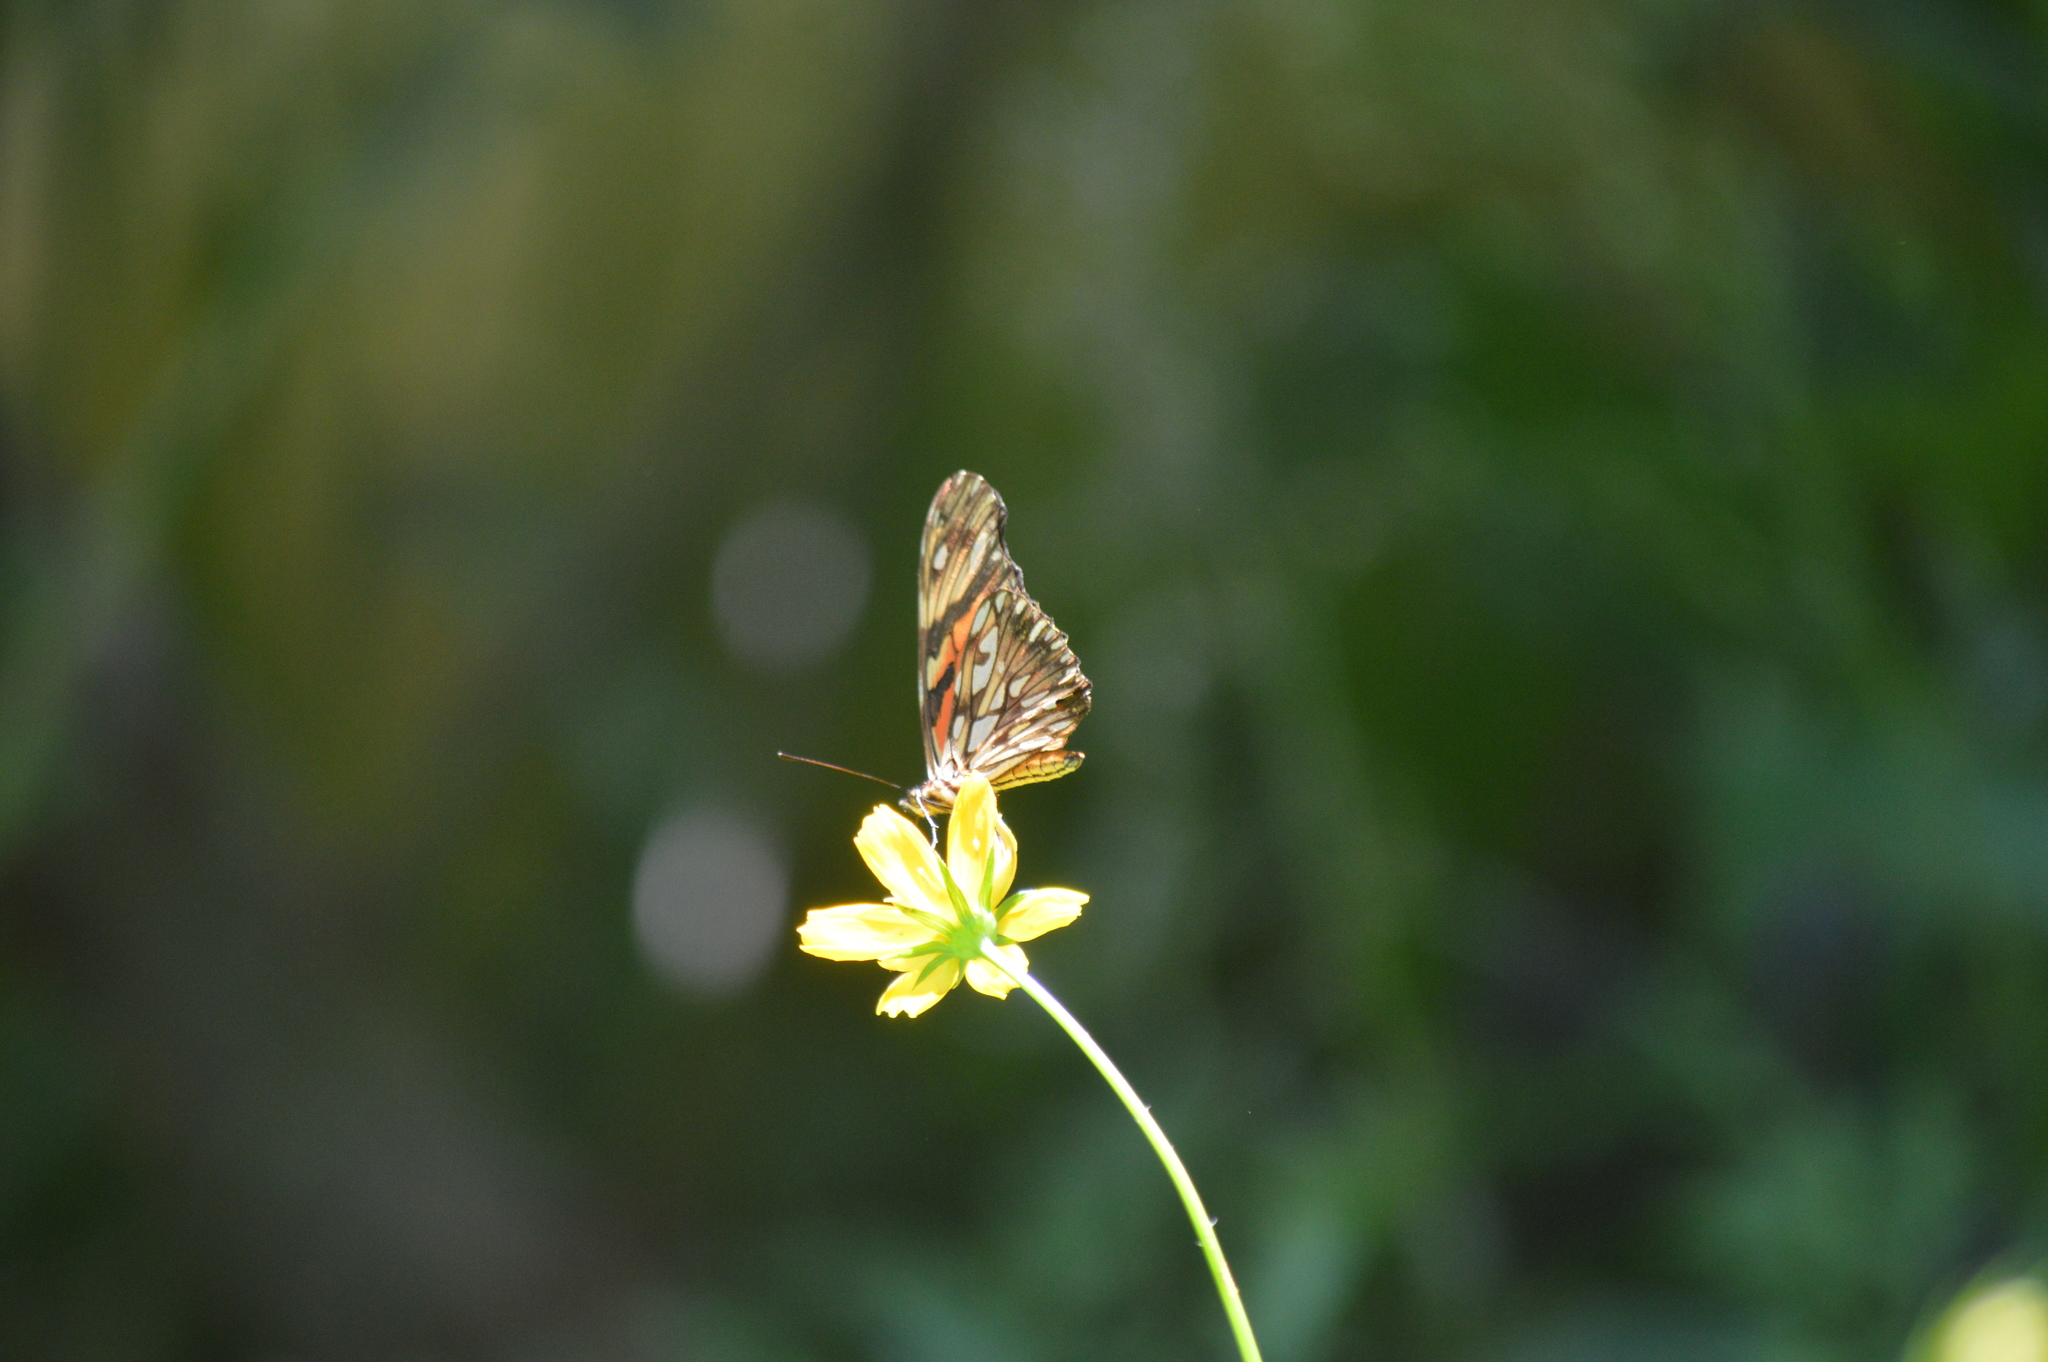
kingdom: Animalia
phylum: Arthropoda
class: Insecta
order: Lepidoptera
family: Nymphalidae
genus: Dione
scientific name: Dione vanillae
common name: Gulf fritillary
